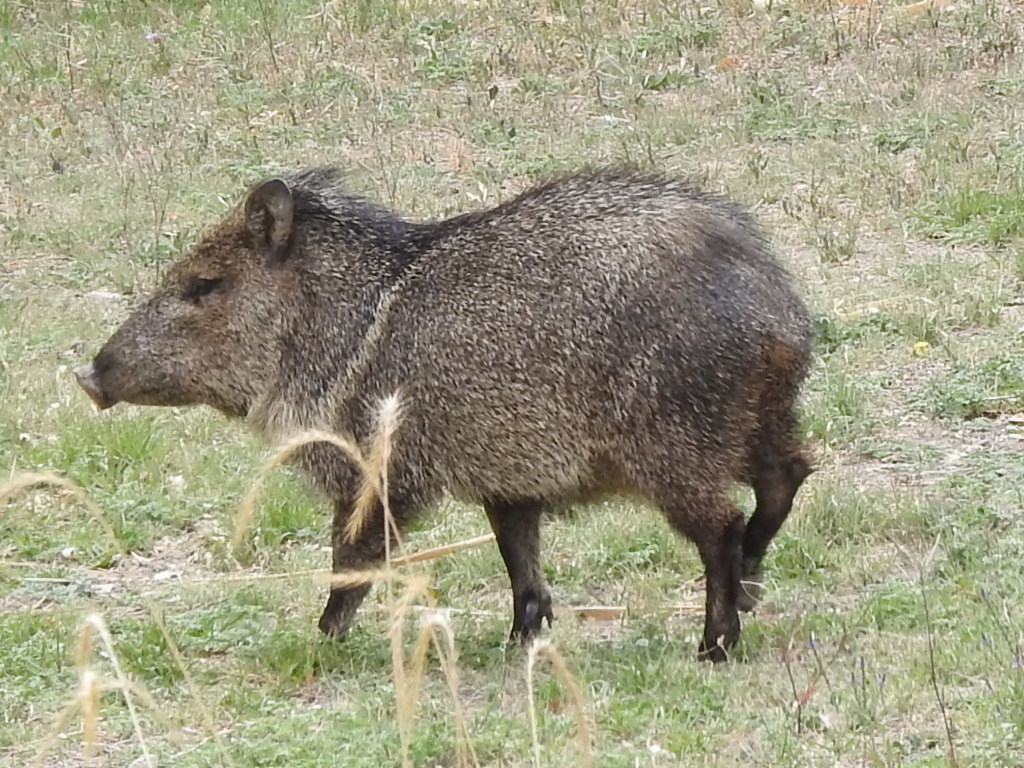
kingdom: Animalia
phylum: Chordata
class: Mammalia
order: Artiodactyla
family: Tayassuidae
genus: Pecari
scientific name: Pecari tajacu
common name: Collared peccary
